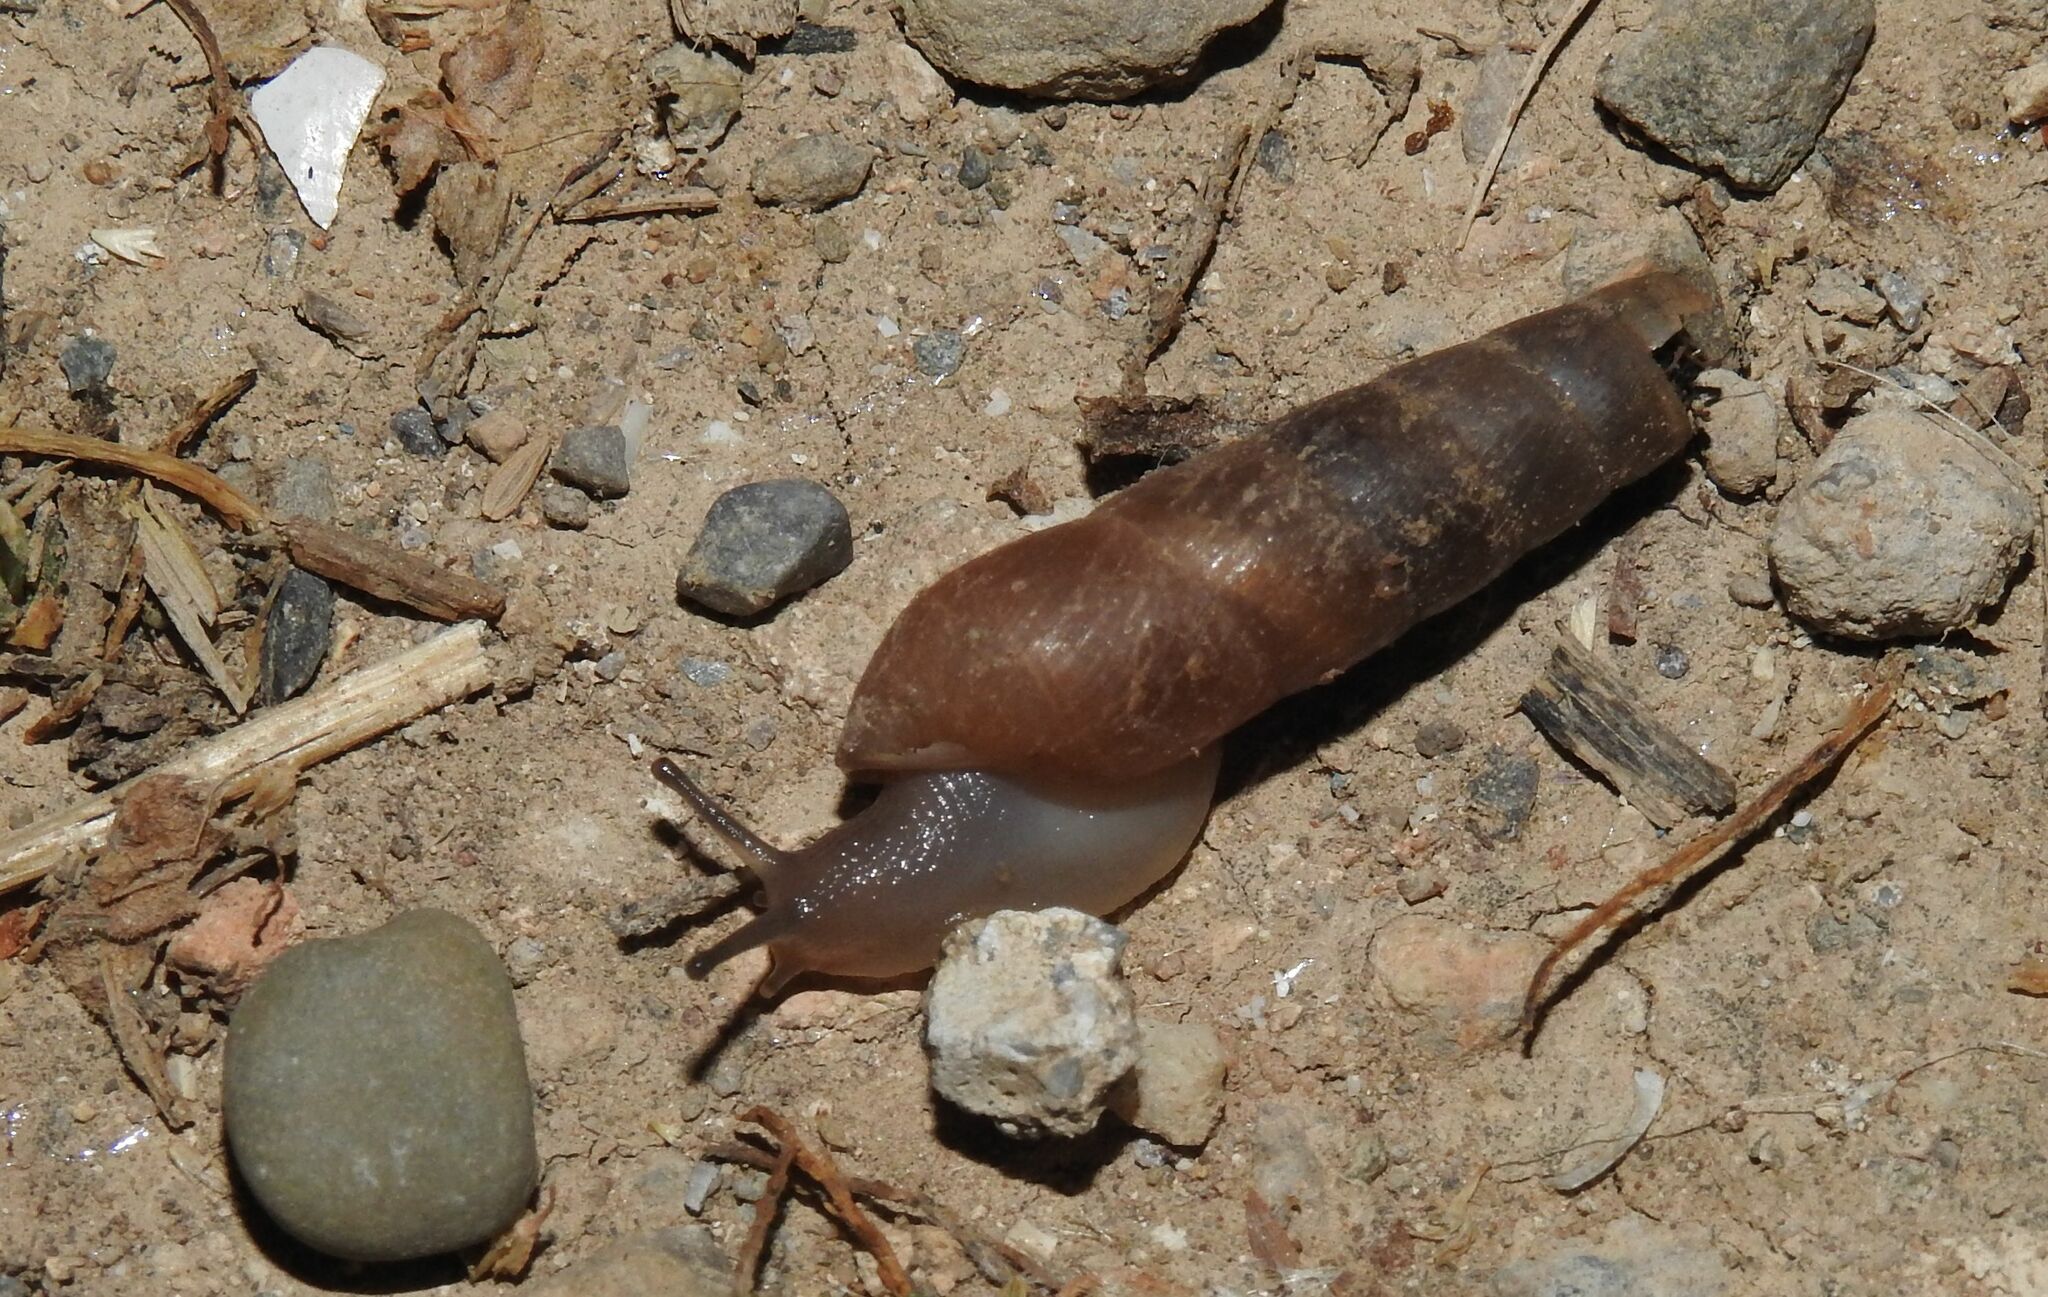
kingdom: Animalia
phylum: Mollusca
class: Gastropoda
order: Stylommatophora
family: Achatinidae
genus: Rumina
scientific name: Rumina saharica
